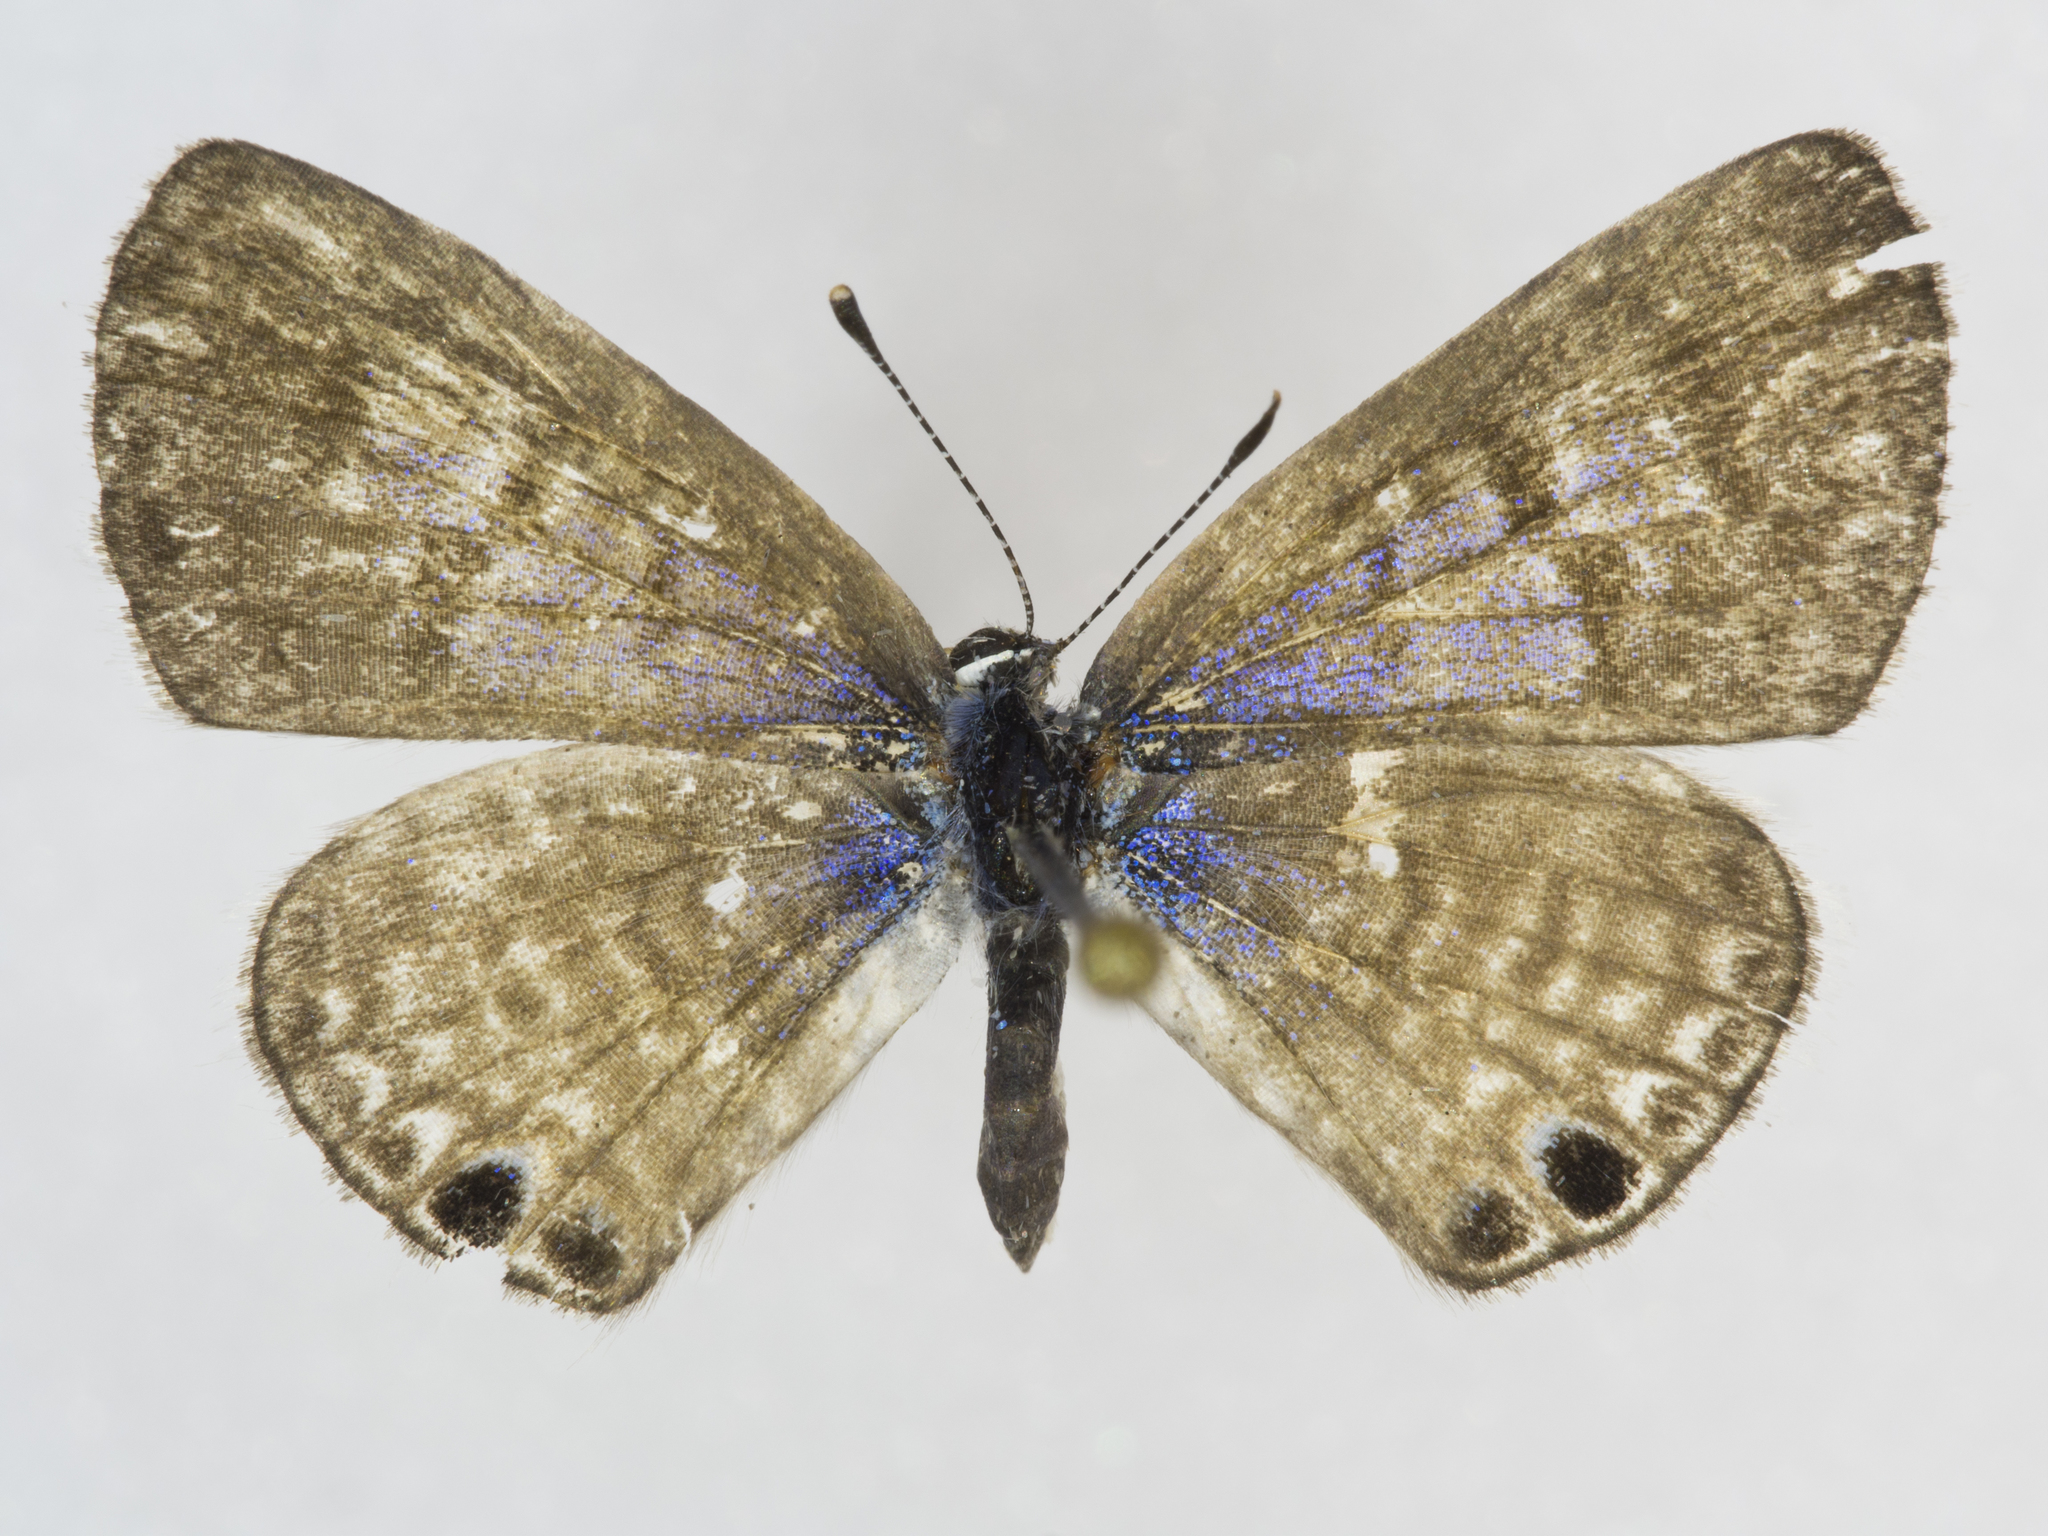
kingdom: Animalia
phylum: Arthropoda
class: Insecta
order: Lepidoptera
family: Lycaenidae
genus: Leptotes
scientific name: Leptotes marina
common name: Marine blue
